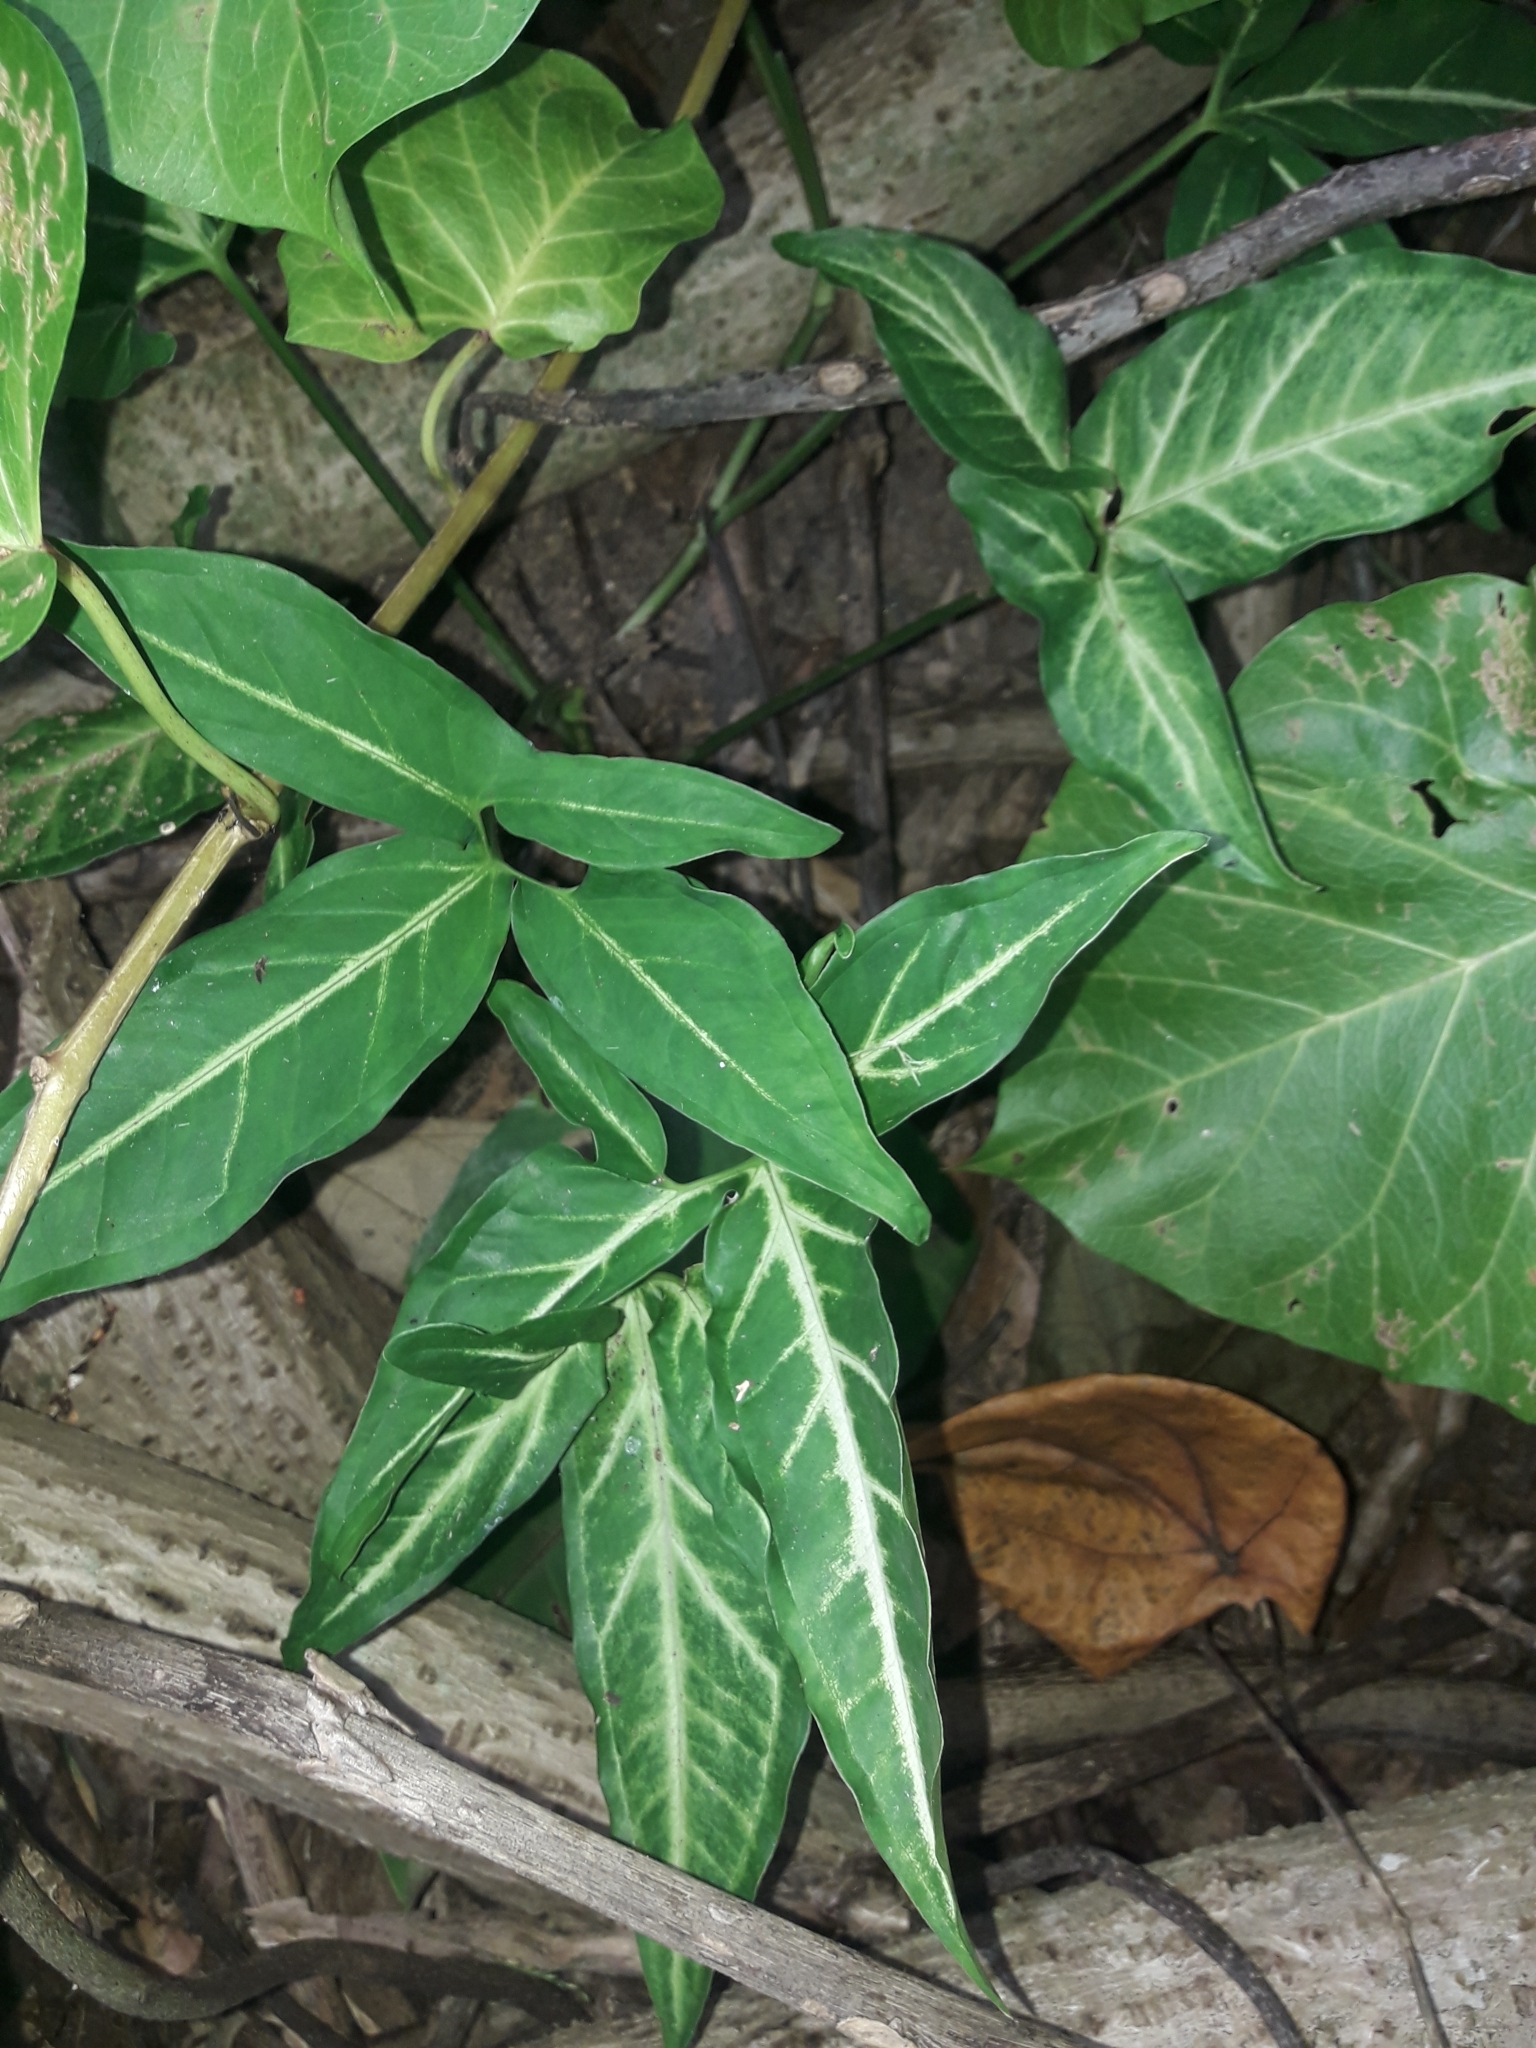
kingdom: Plantae
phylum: Tracheophyta
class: Liliopsida
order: Alismatales
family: Araceae
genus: Syngonium
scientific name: Syngonium podophyllum
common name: American evergreen
